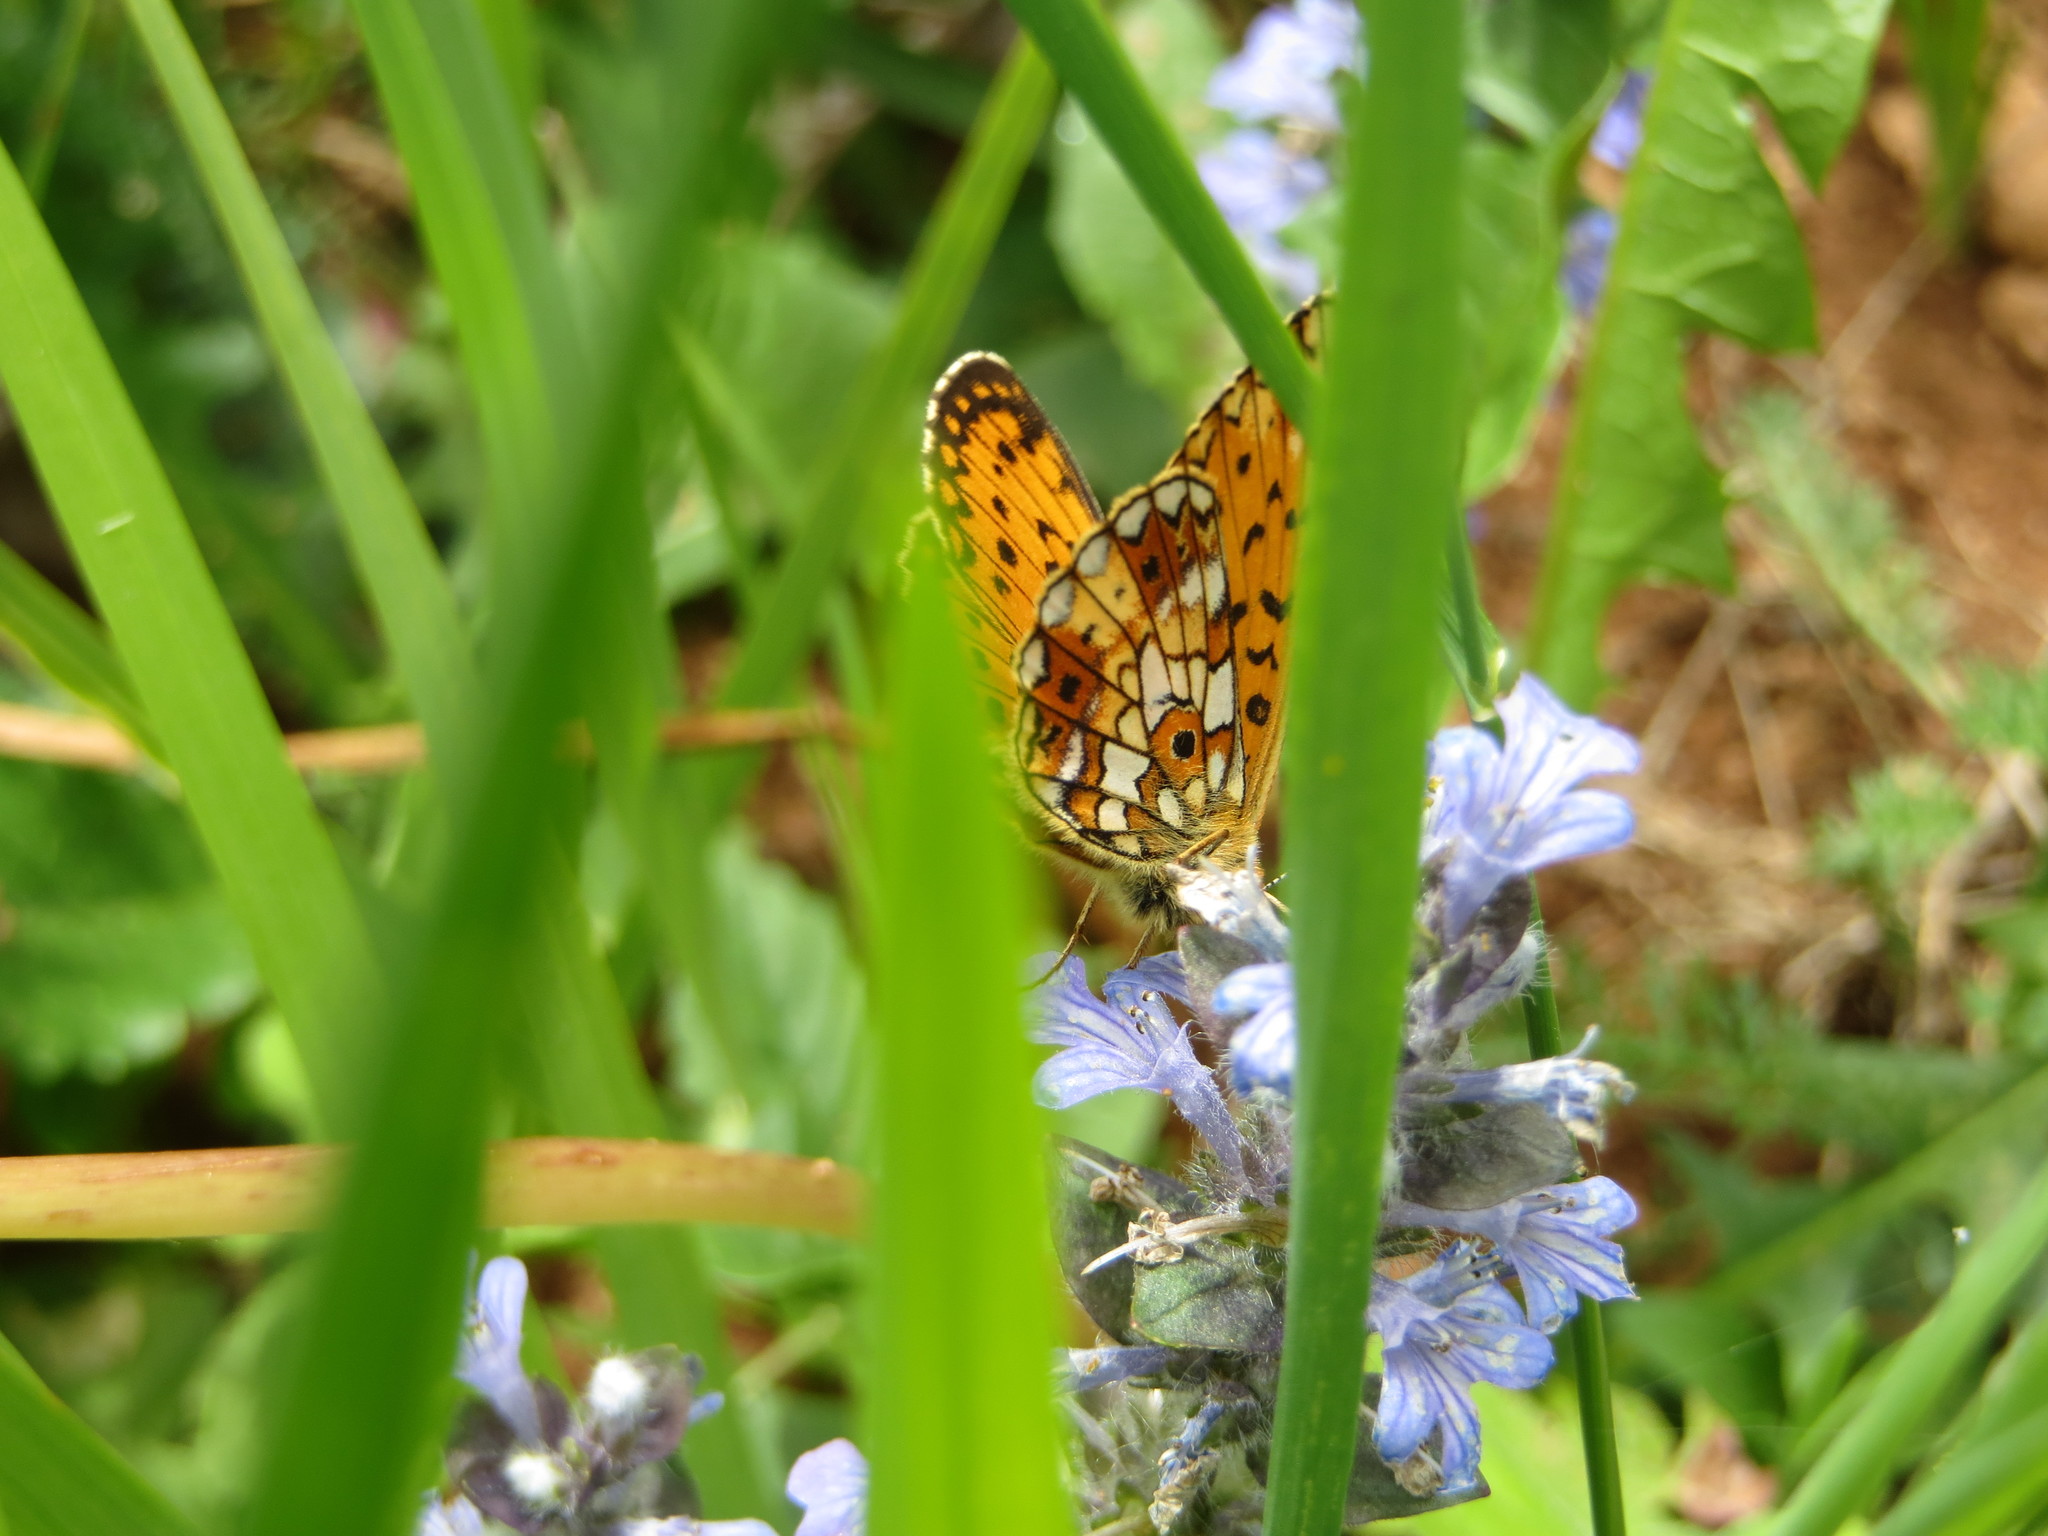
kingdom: Animalia
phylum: Arthropoda
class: Insecta
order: Lepidoptera
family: Nymphalidae
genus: Boloria
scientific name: Boloria selene
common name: Small pearl-bordered fritillary
